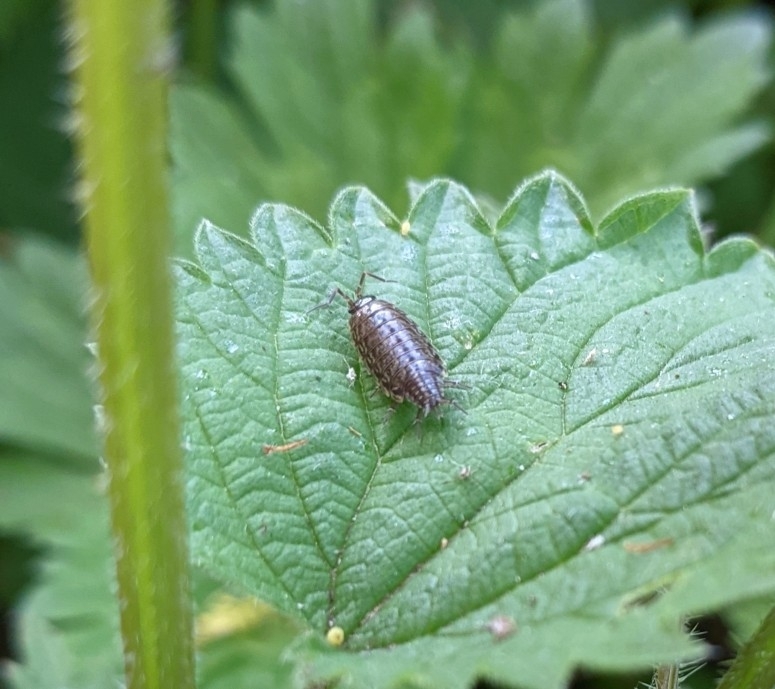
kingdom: Animalia
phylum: Arthropoda
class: Malacostraca
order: Isopoda
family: Philosciidae
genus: Philoscia
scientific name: Philoscia muscorum
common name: Common striped woodlouse
